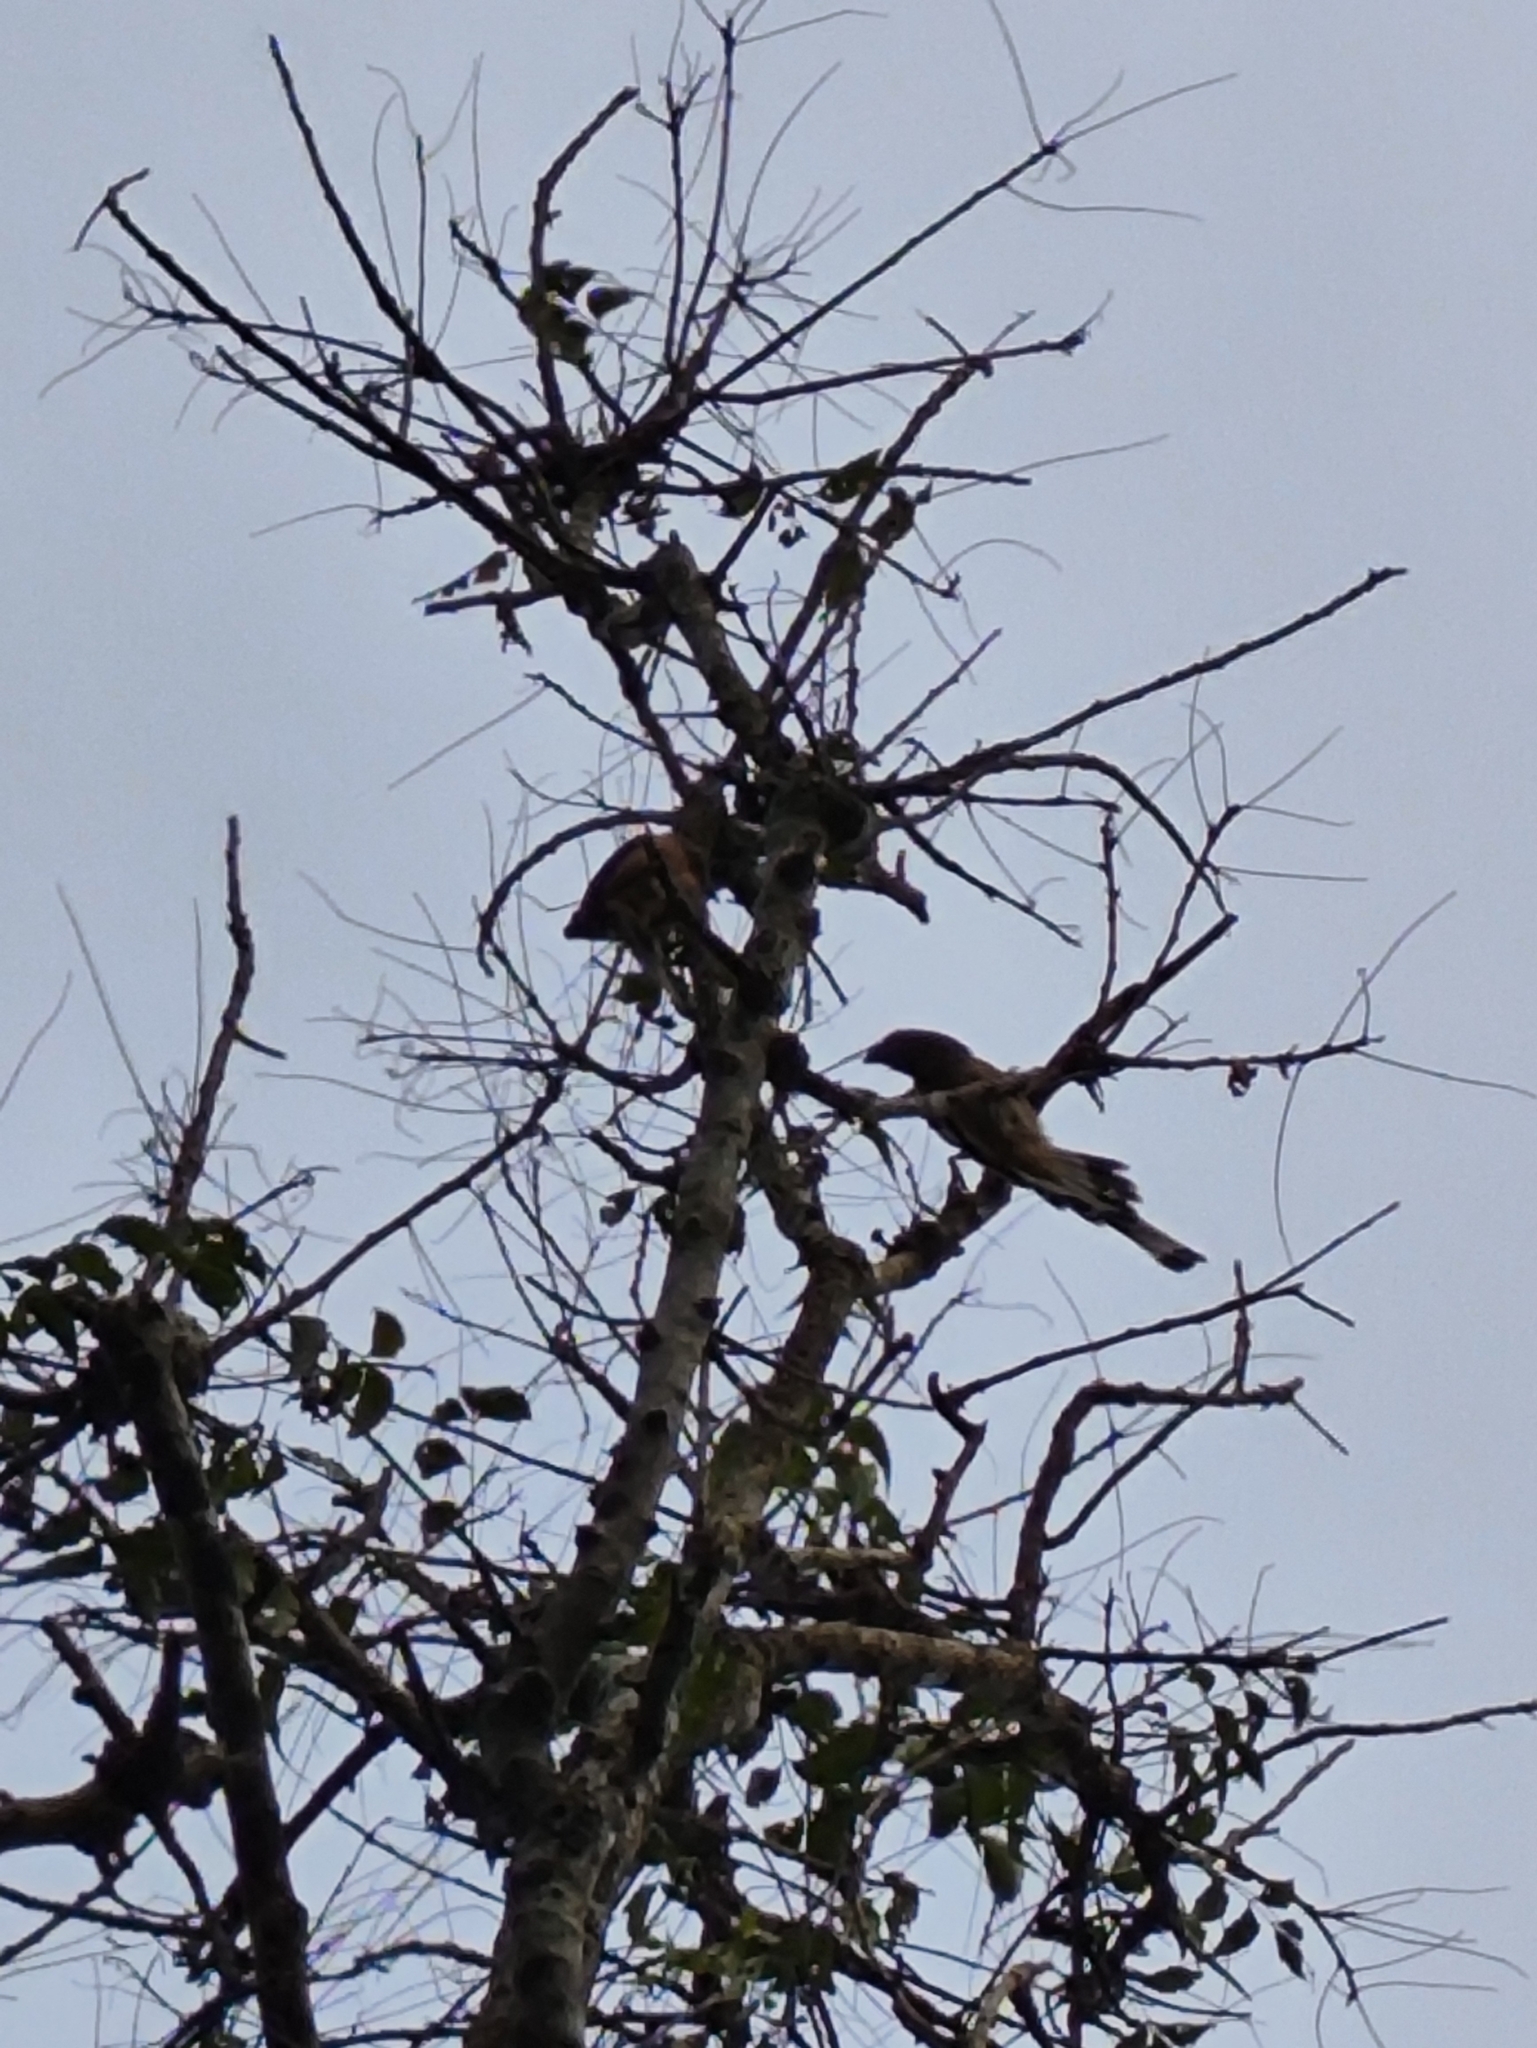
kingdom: Animalia
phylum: Chordata
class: Aves
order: Passeriformes
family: Corvidae
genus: Dendrocitta
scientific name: Dendrocitta vagabunda
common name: Rufous treepie
